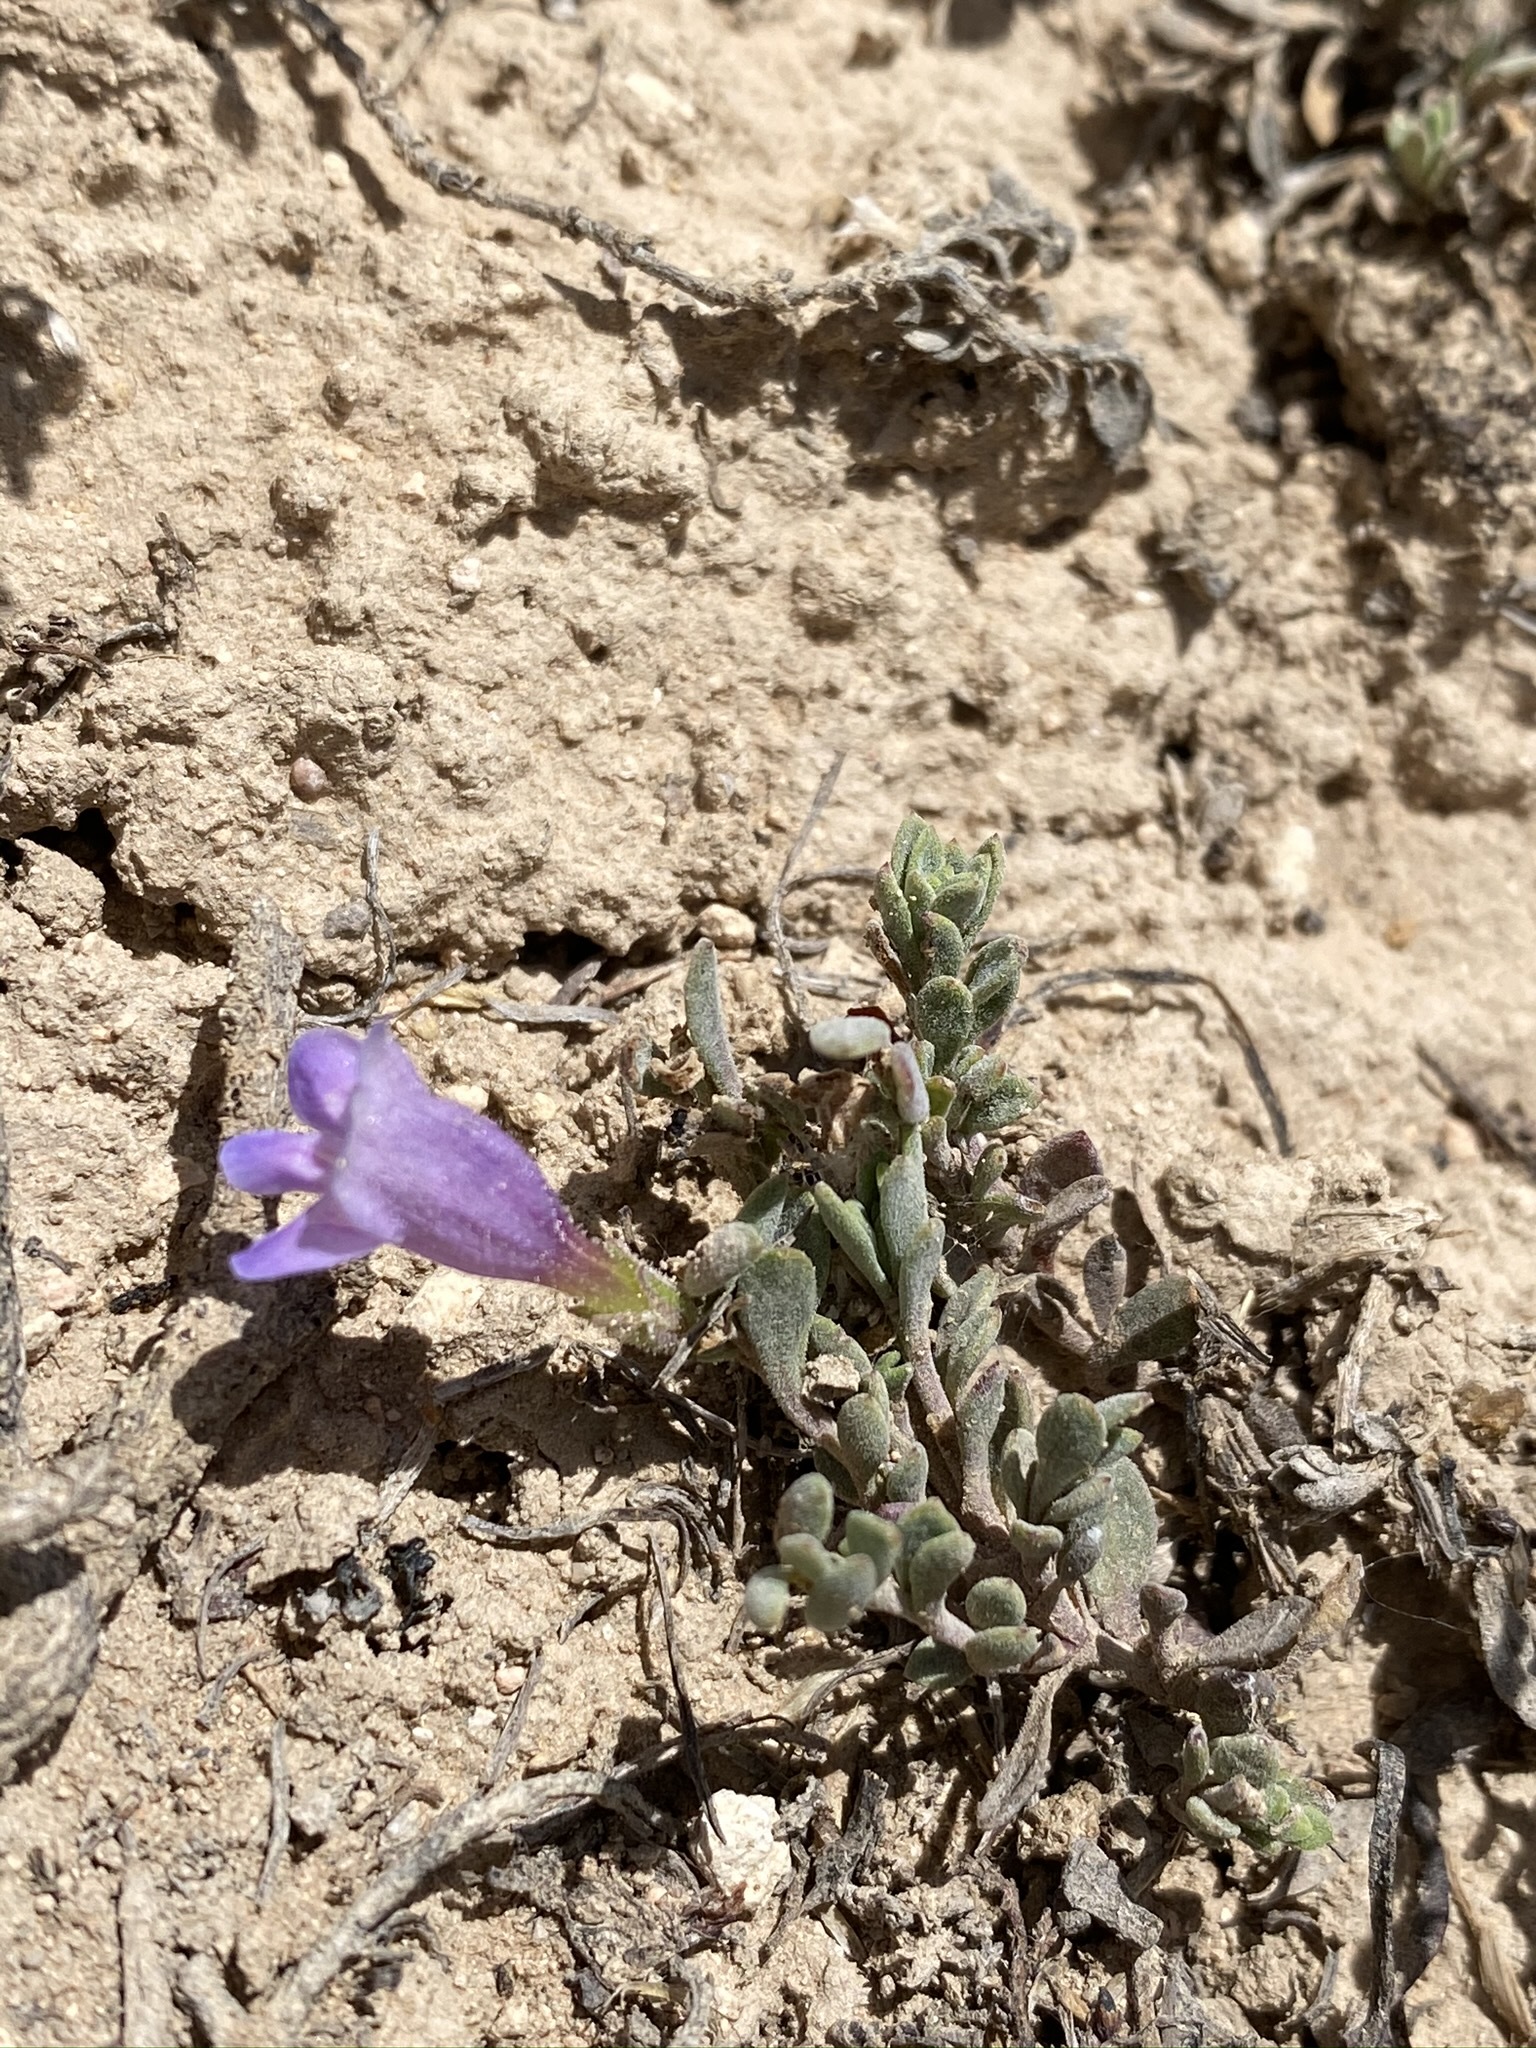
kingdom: Plantae
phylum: Tracheophyta
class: Magnoliopsida
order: Lamiales
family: Plantaginaceae
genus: Penstemon
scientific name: Penstemon caespitosus
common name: Mat penstemon
